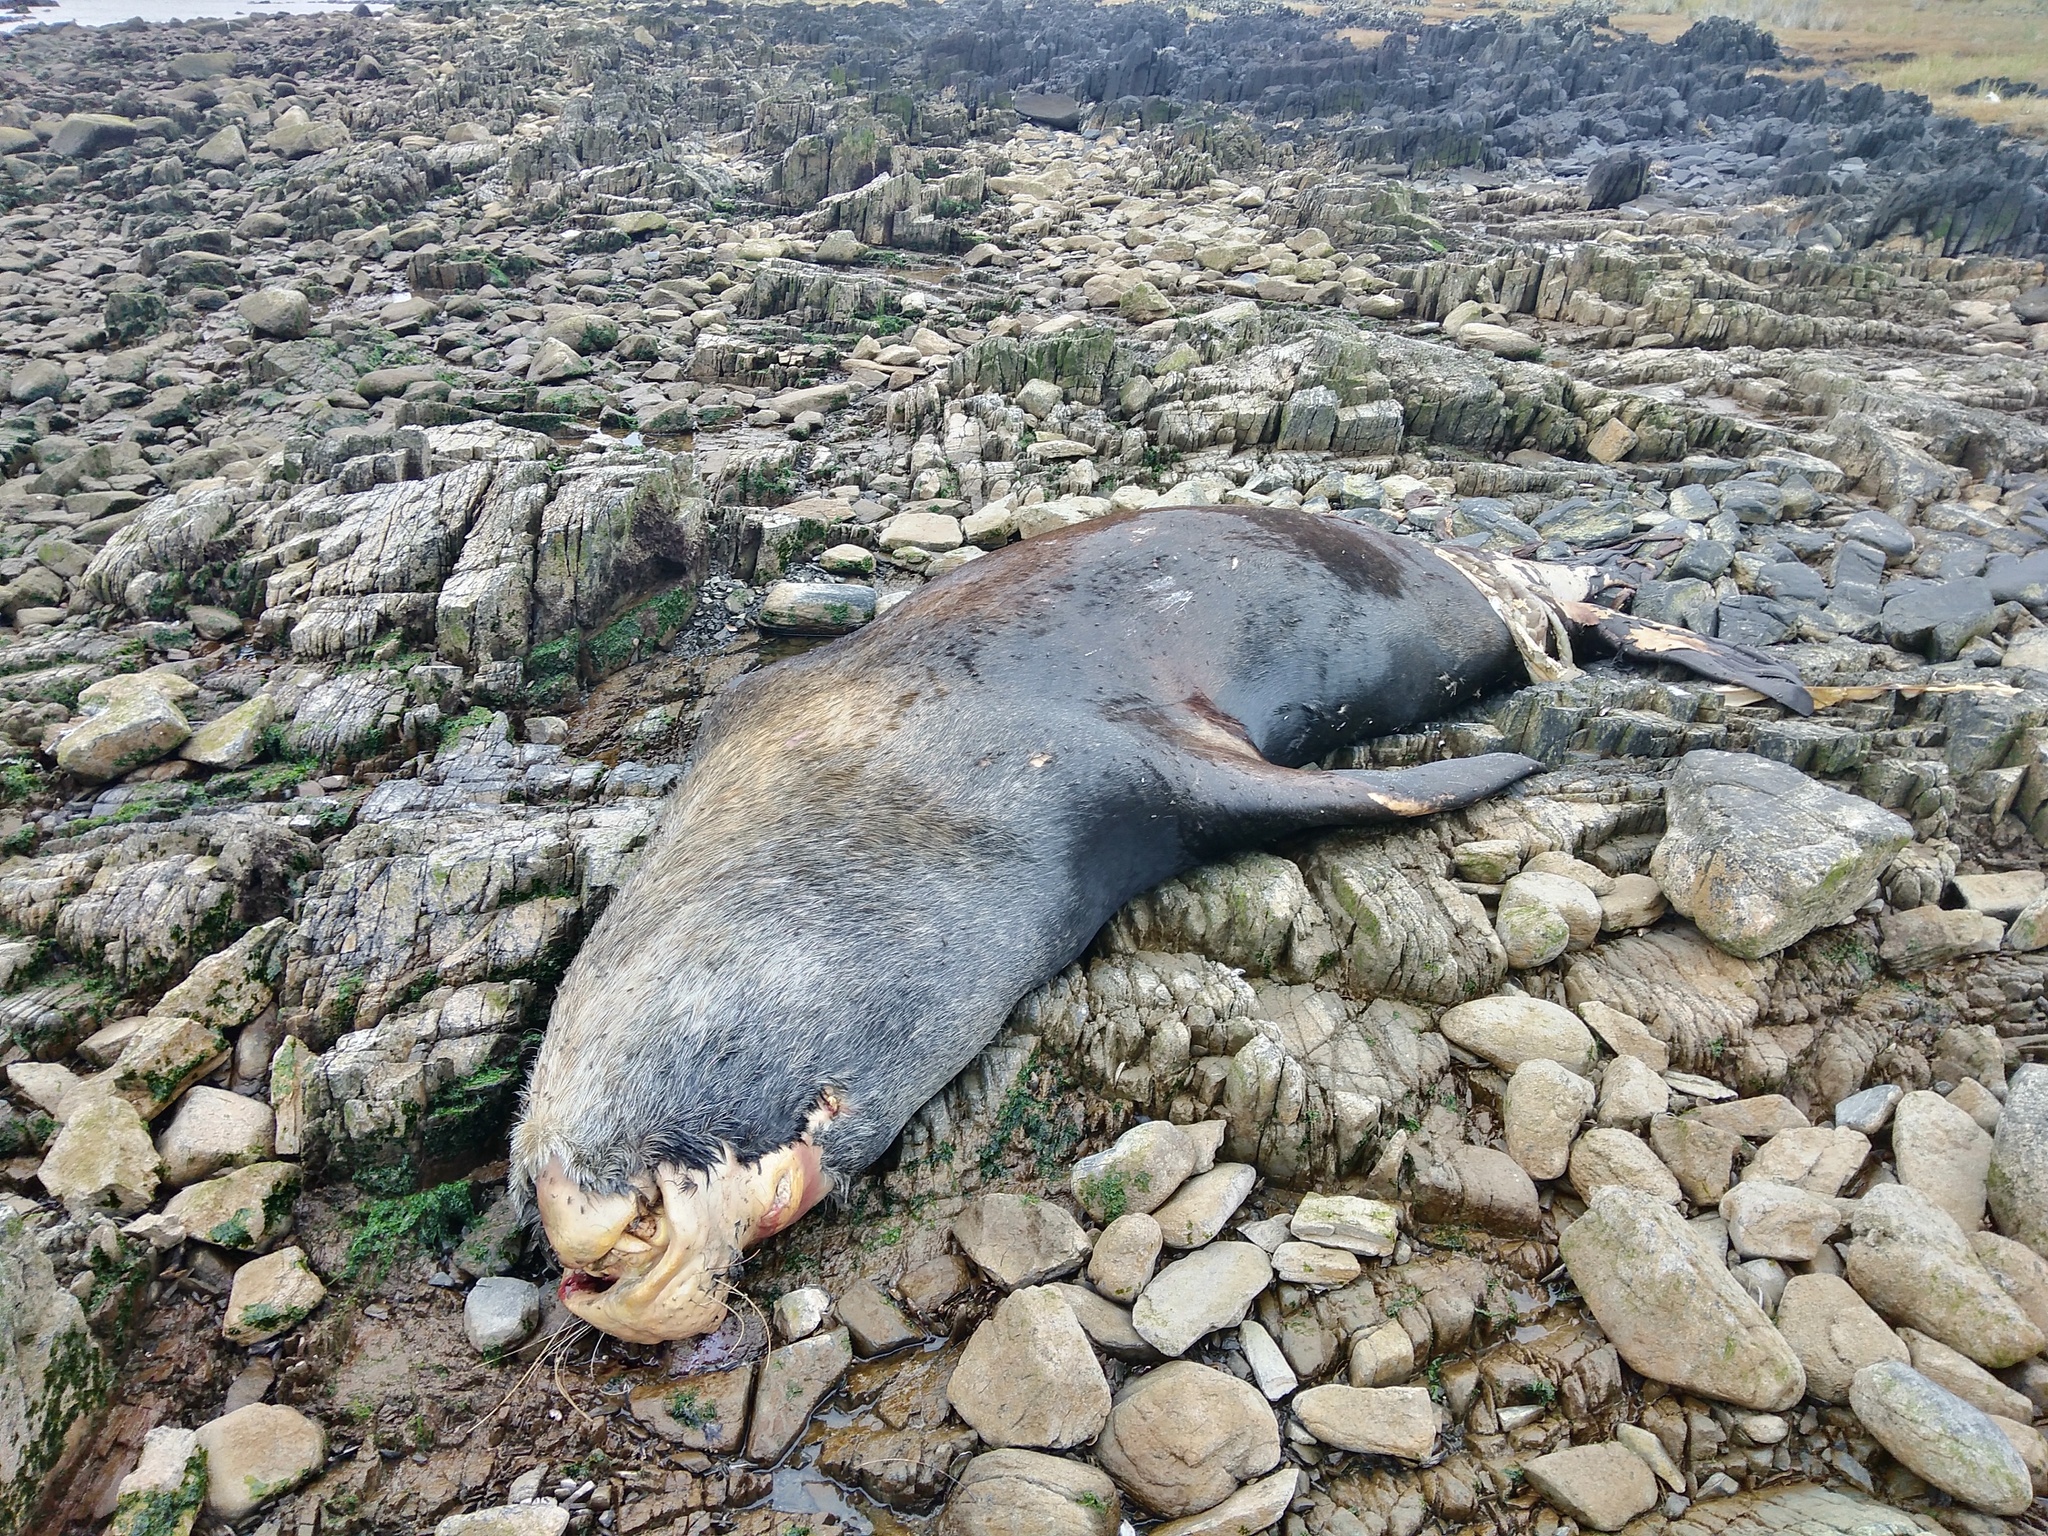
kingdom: Animalia
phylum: Chordata
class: Mammalia
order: Carnivora
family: Otariidae
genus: Otaria
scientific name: Otaria byronia
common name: South american sea lion
